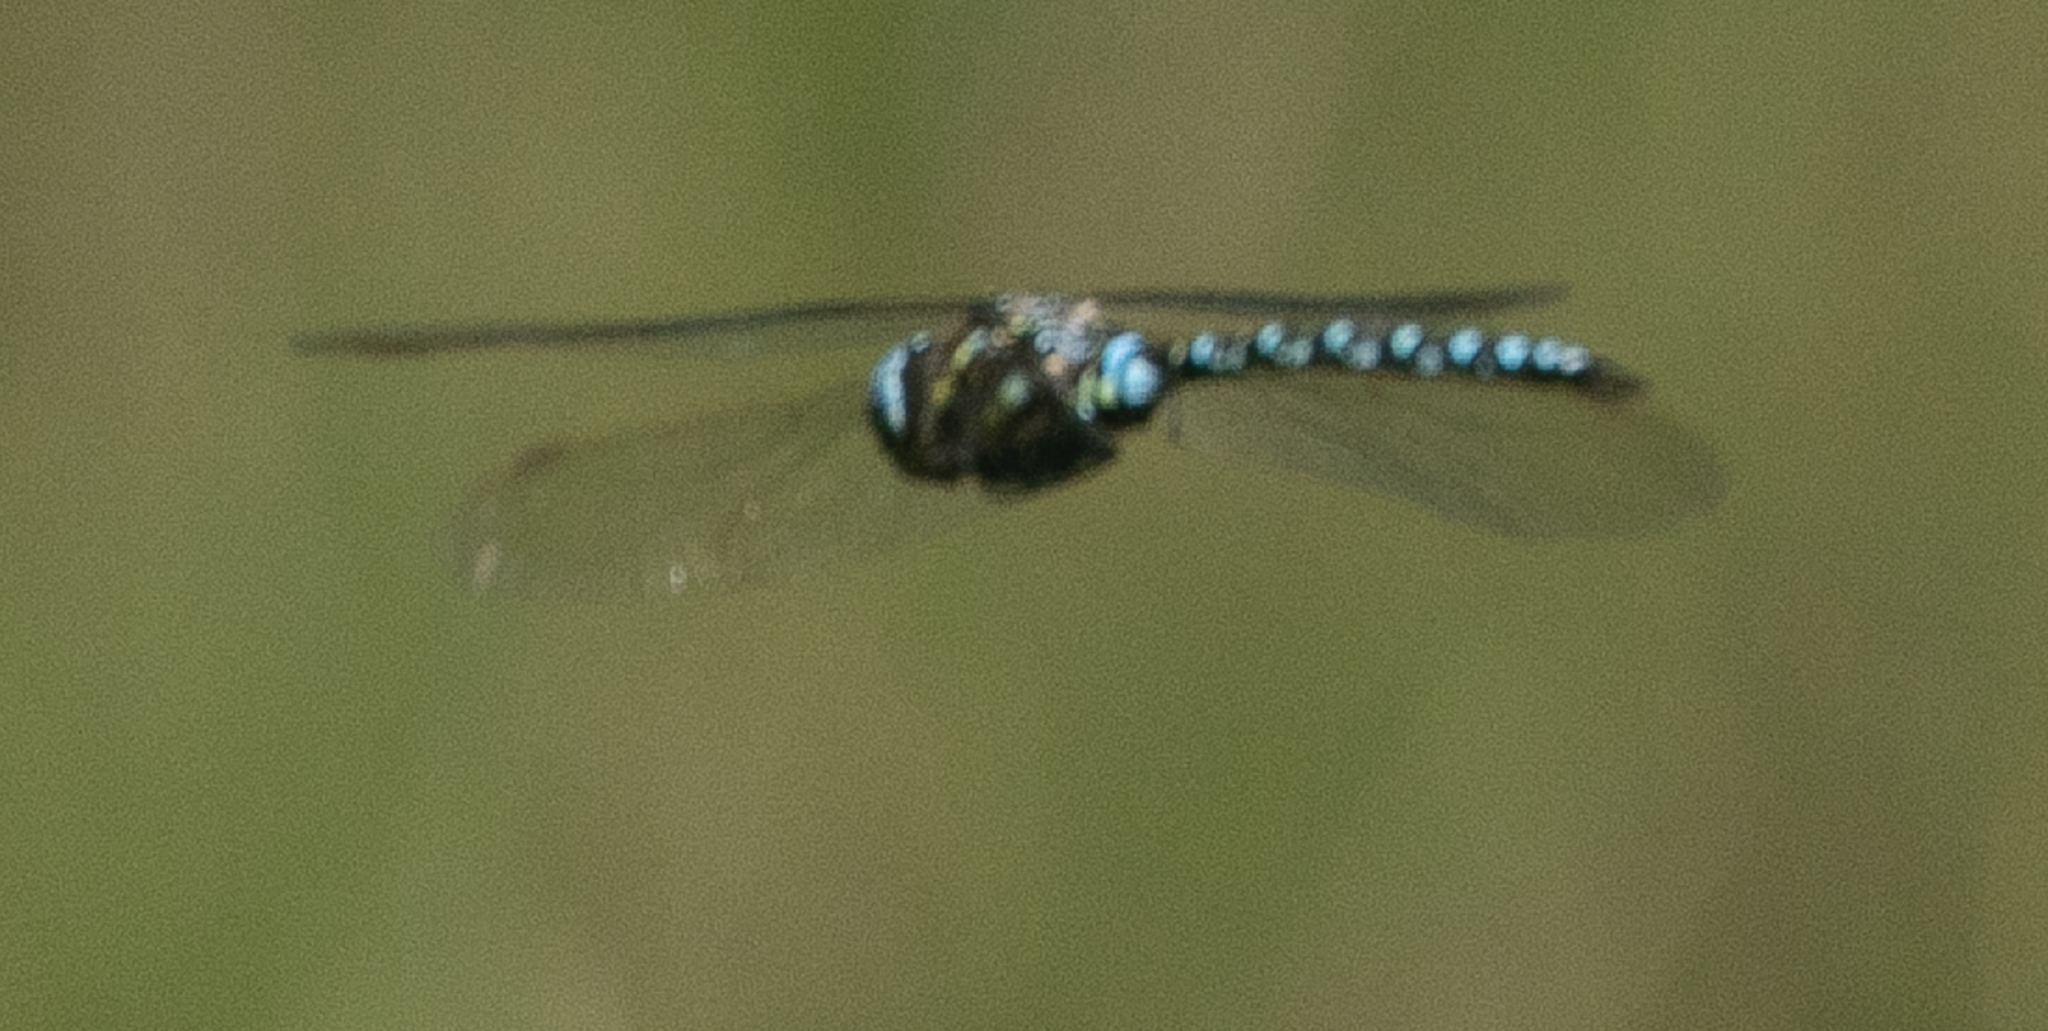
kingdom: Animalia
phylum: Arthropoda
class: Insecta
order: Odonata
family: Aeshnidae
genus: Aeshna
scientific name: Aeshna juncea
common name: Moorland hawker
